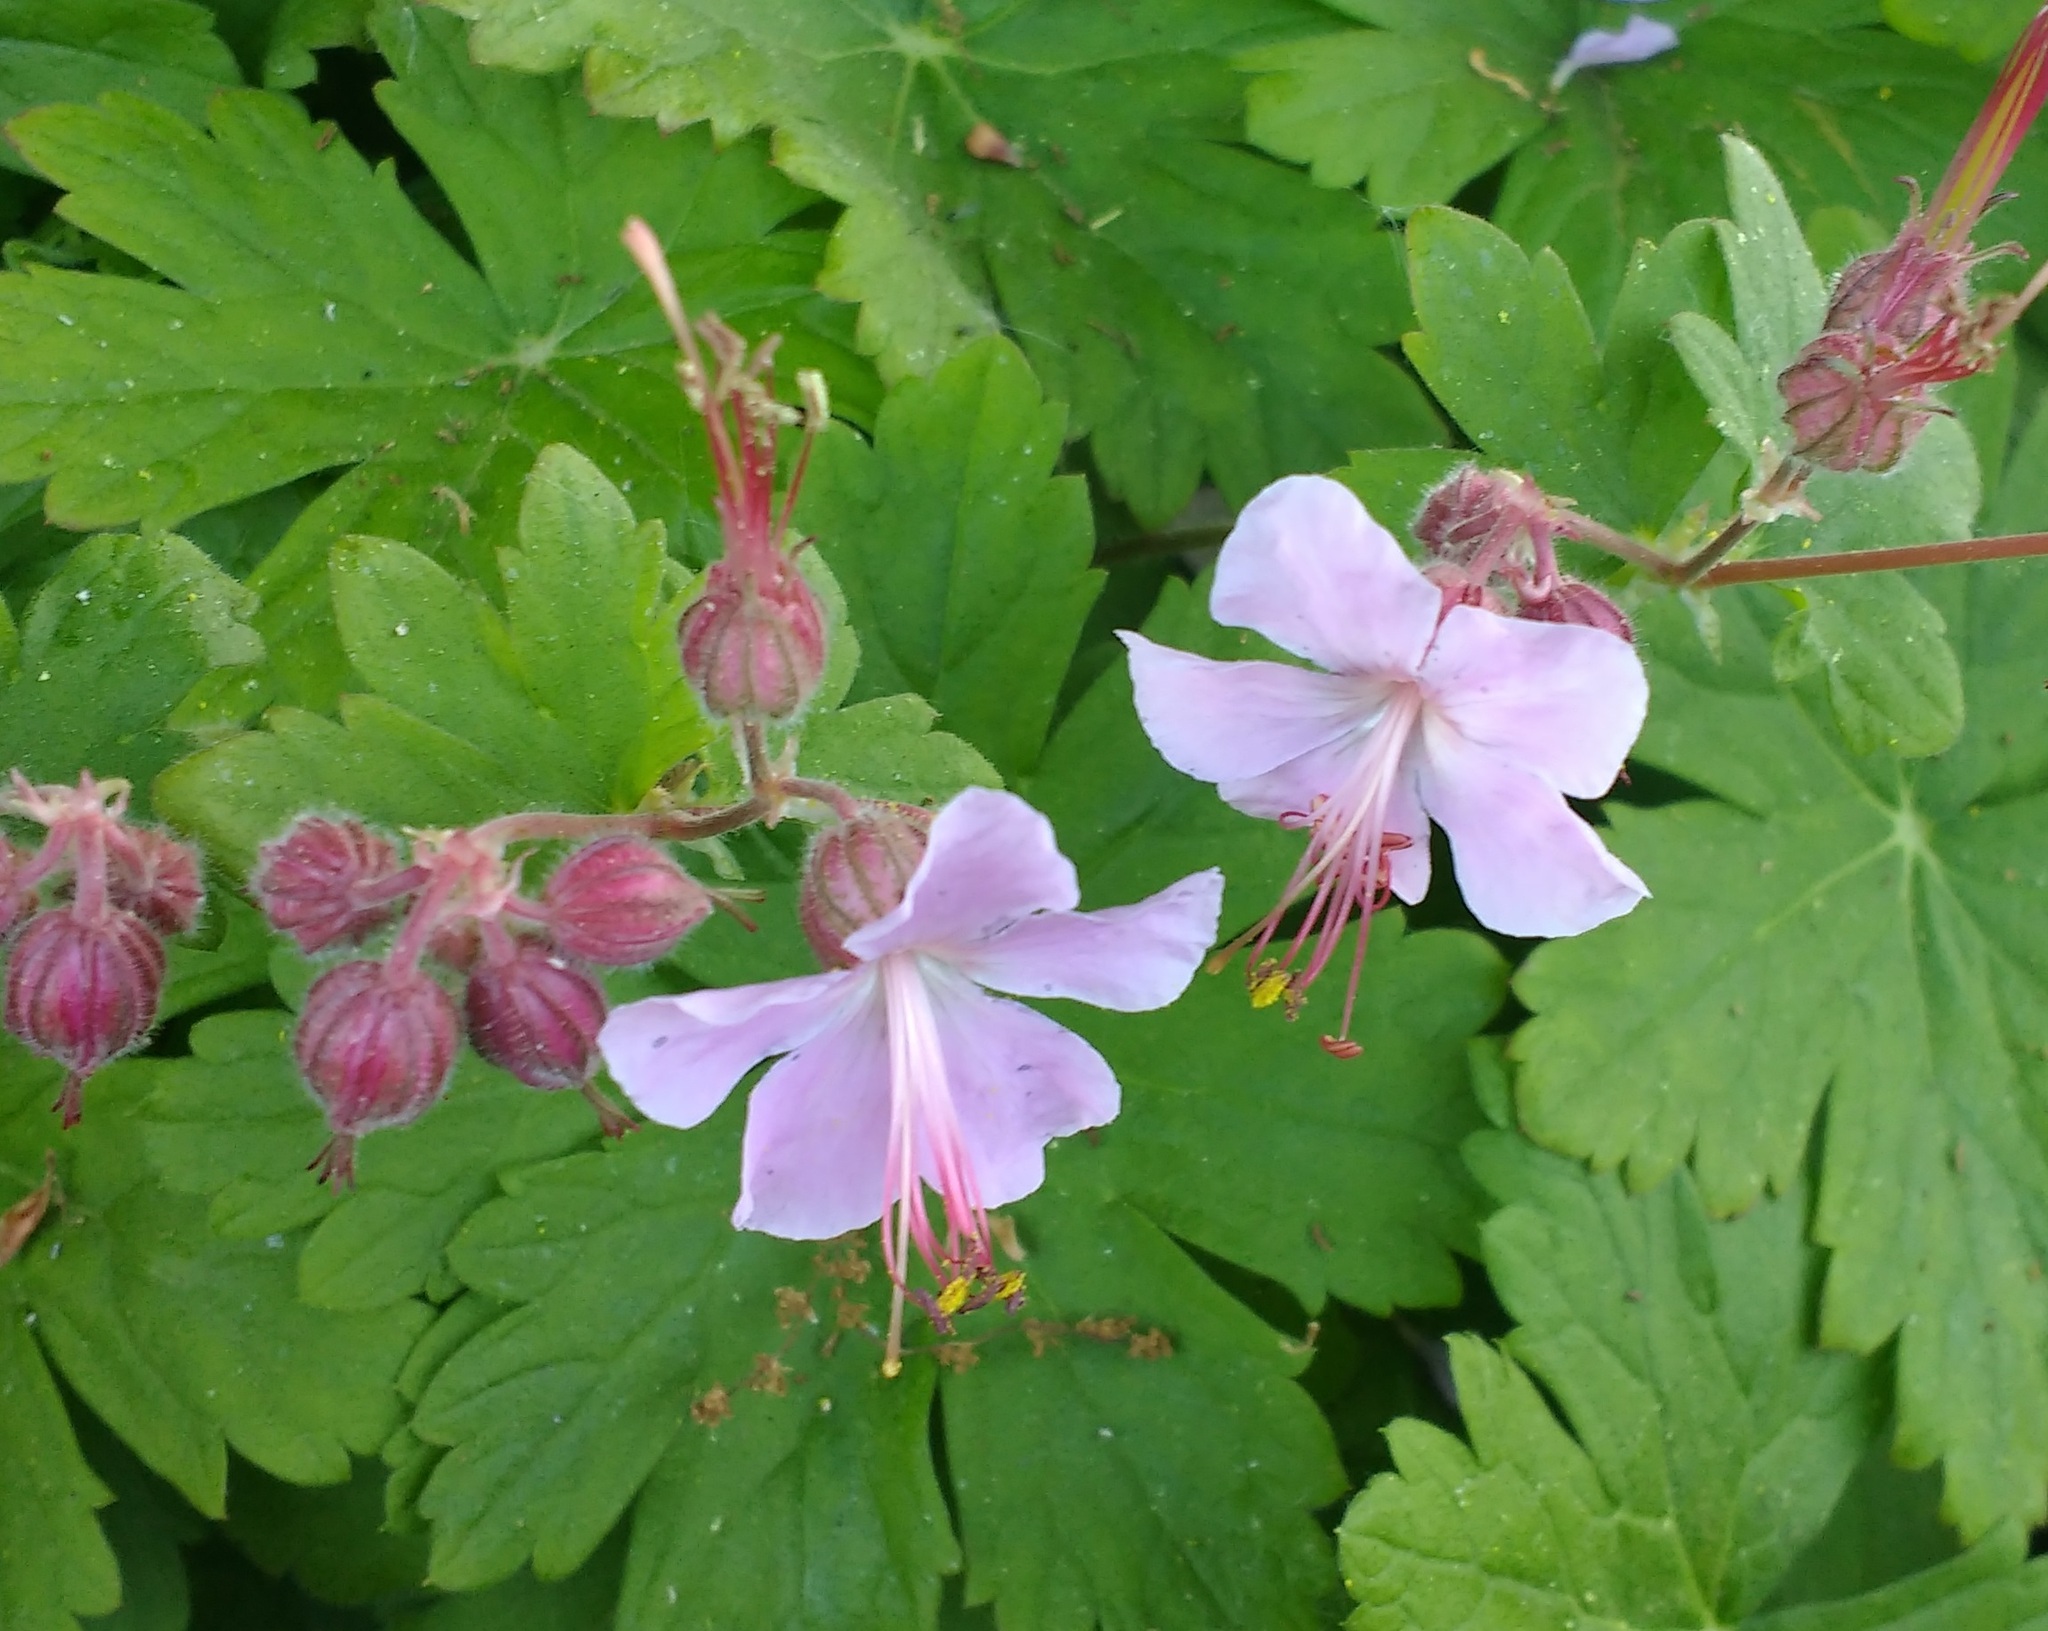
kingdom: Plantae
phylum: Tracheophyta
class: Magnoliopsida
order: Geraniales
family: Geraniaceae
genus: Geranium
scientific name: Geranium macrorrhizum
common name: Rock crane's-bill
